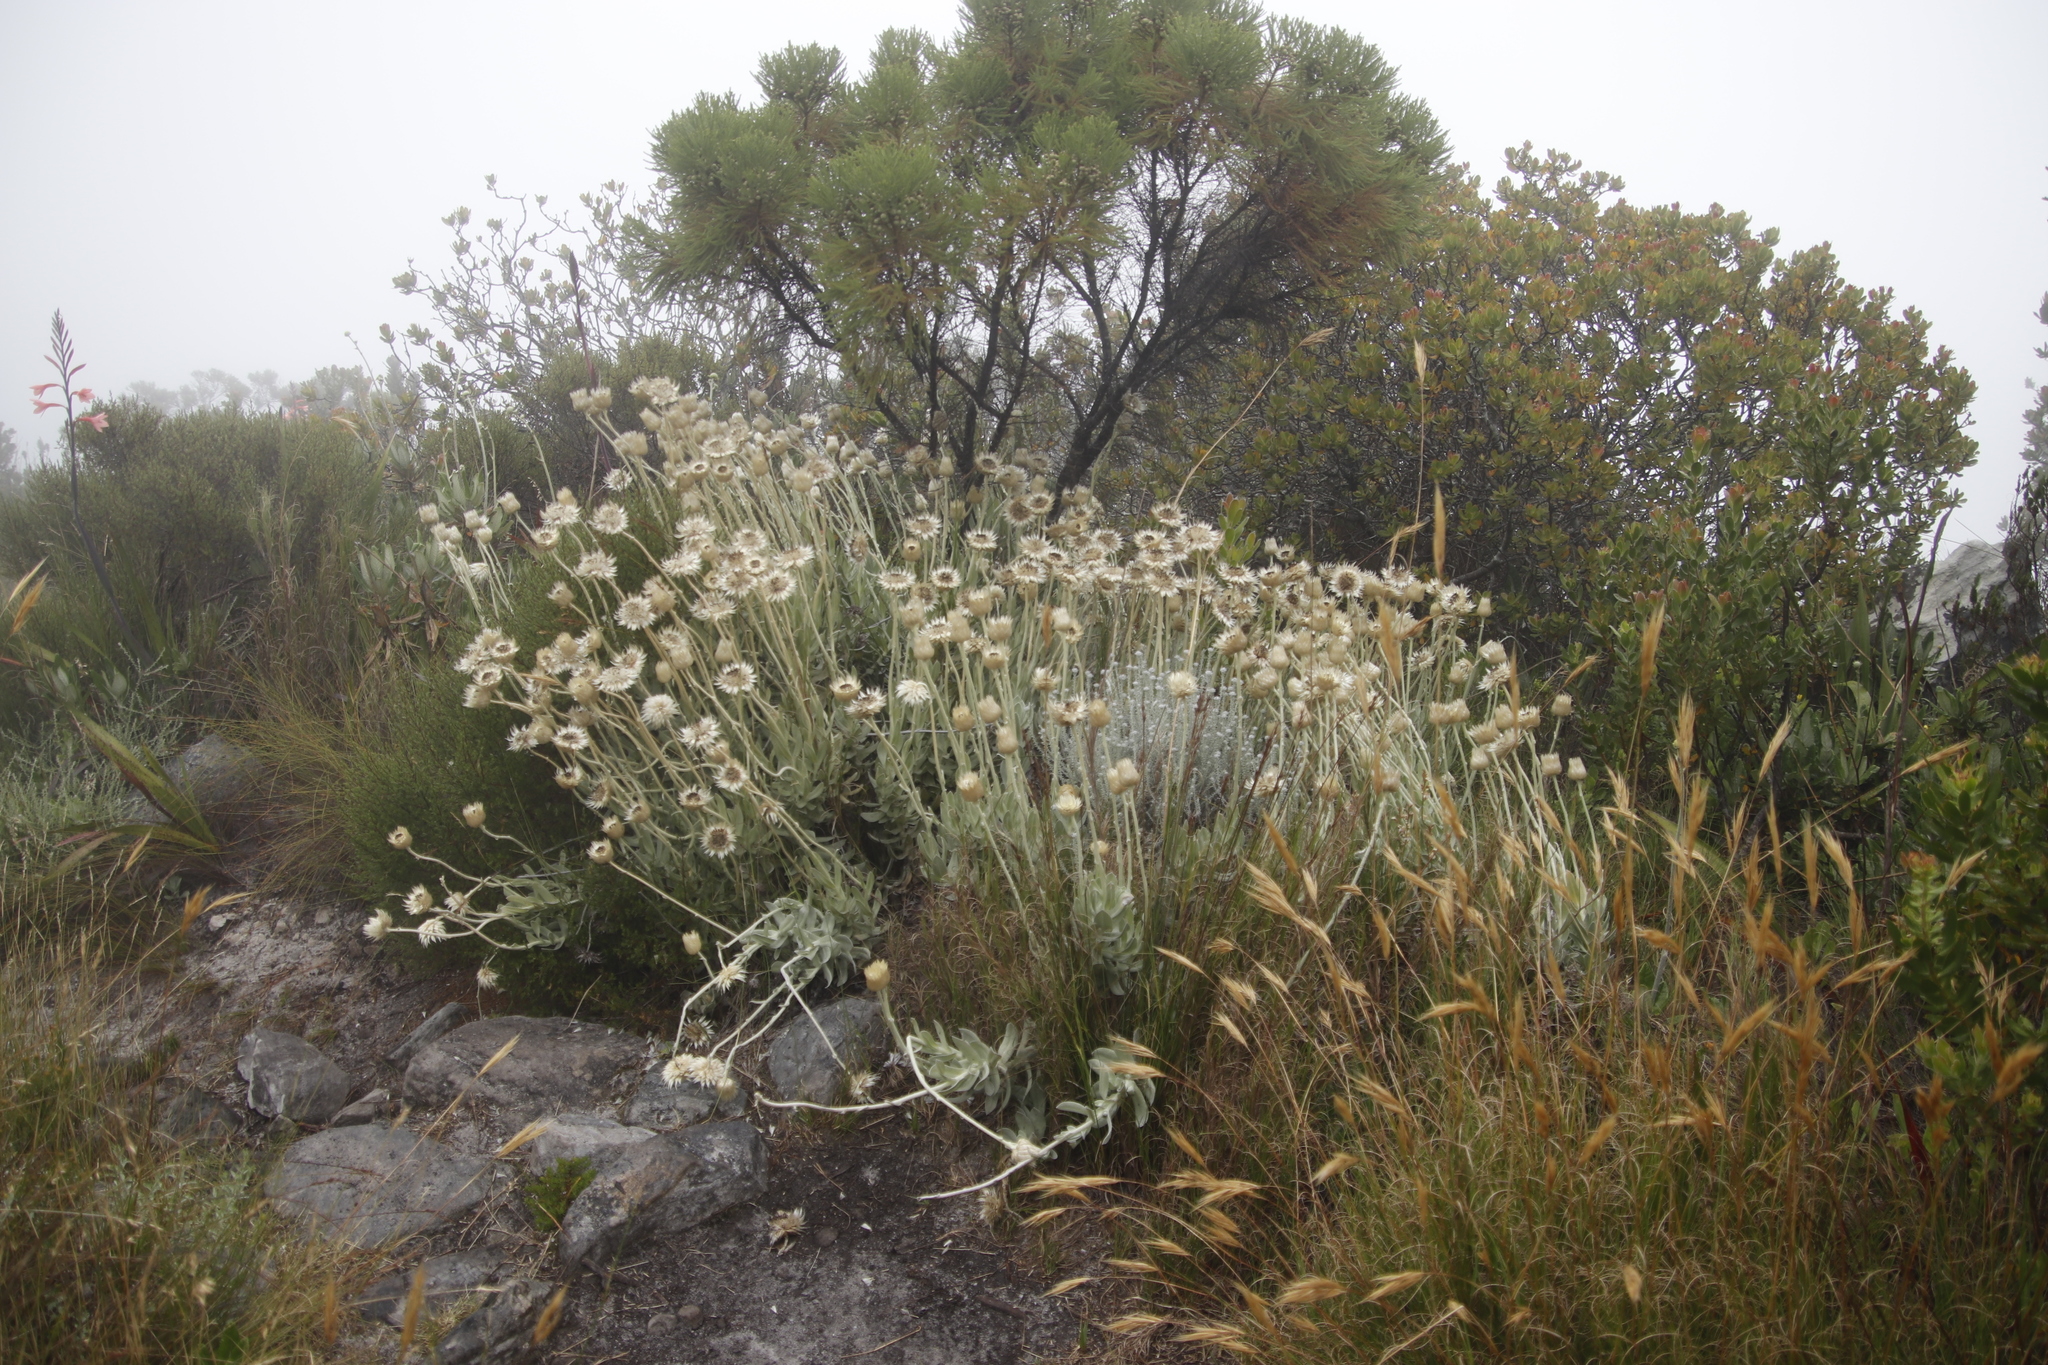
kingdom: Plantae
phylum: Tracheophyta
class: Magnoliopsida
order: Asterales
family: Asteraceae
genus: Syncarpha
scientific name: Syncarpha speciosissima
